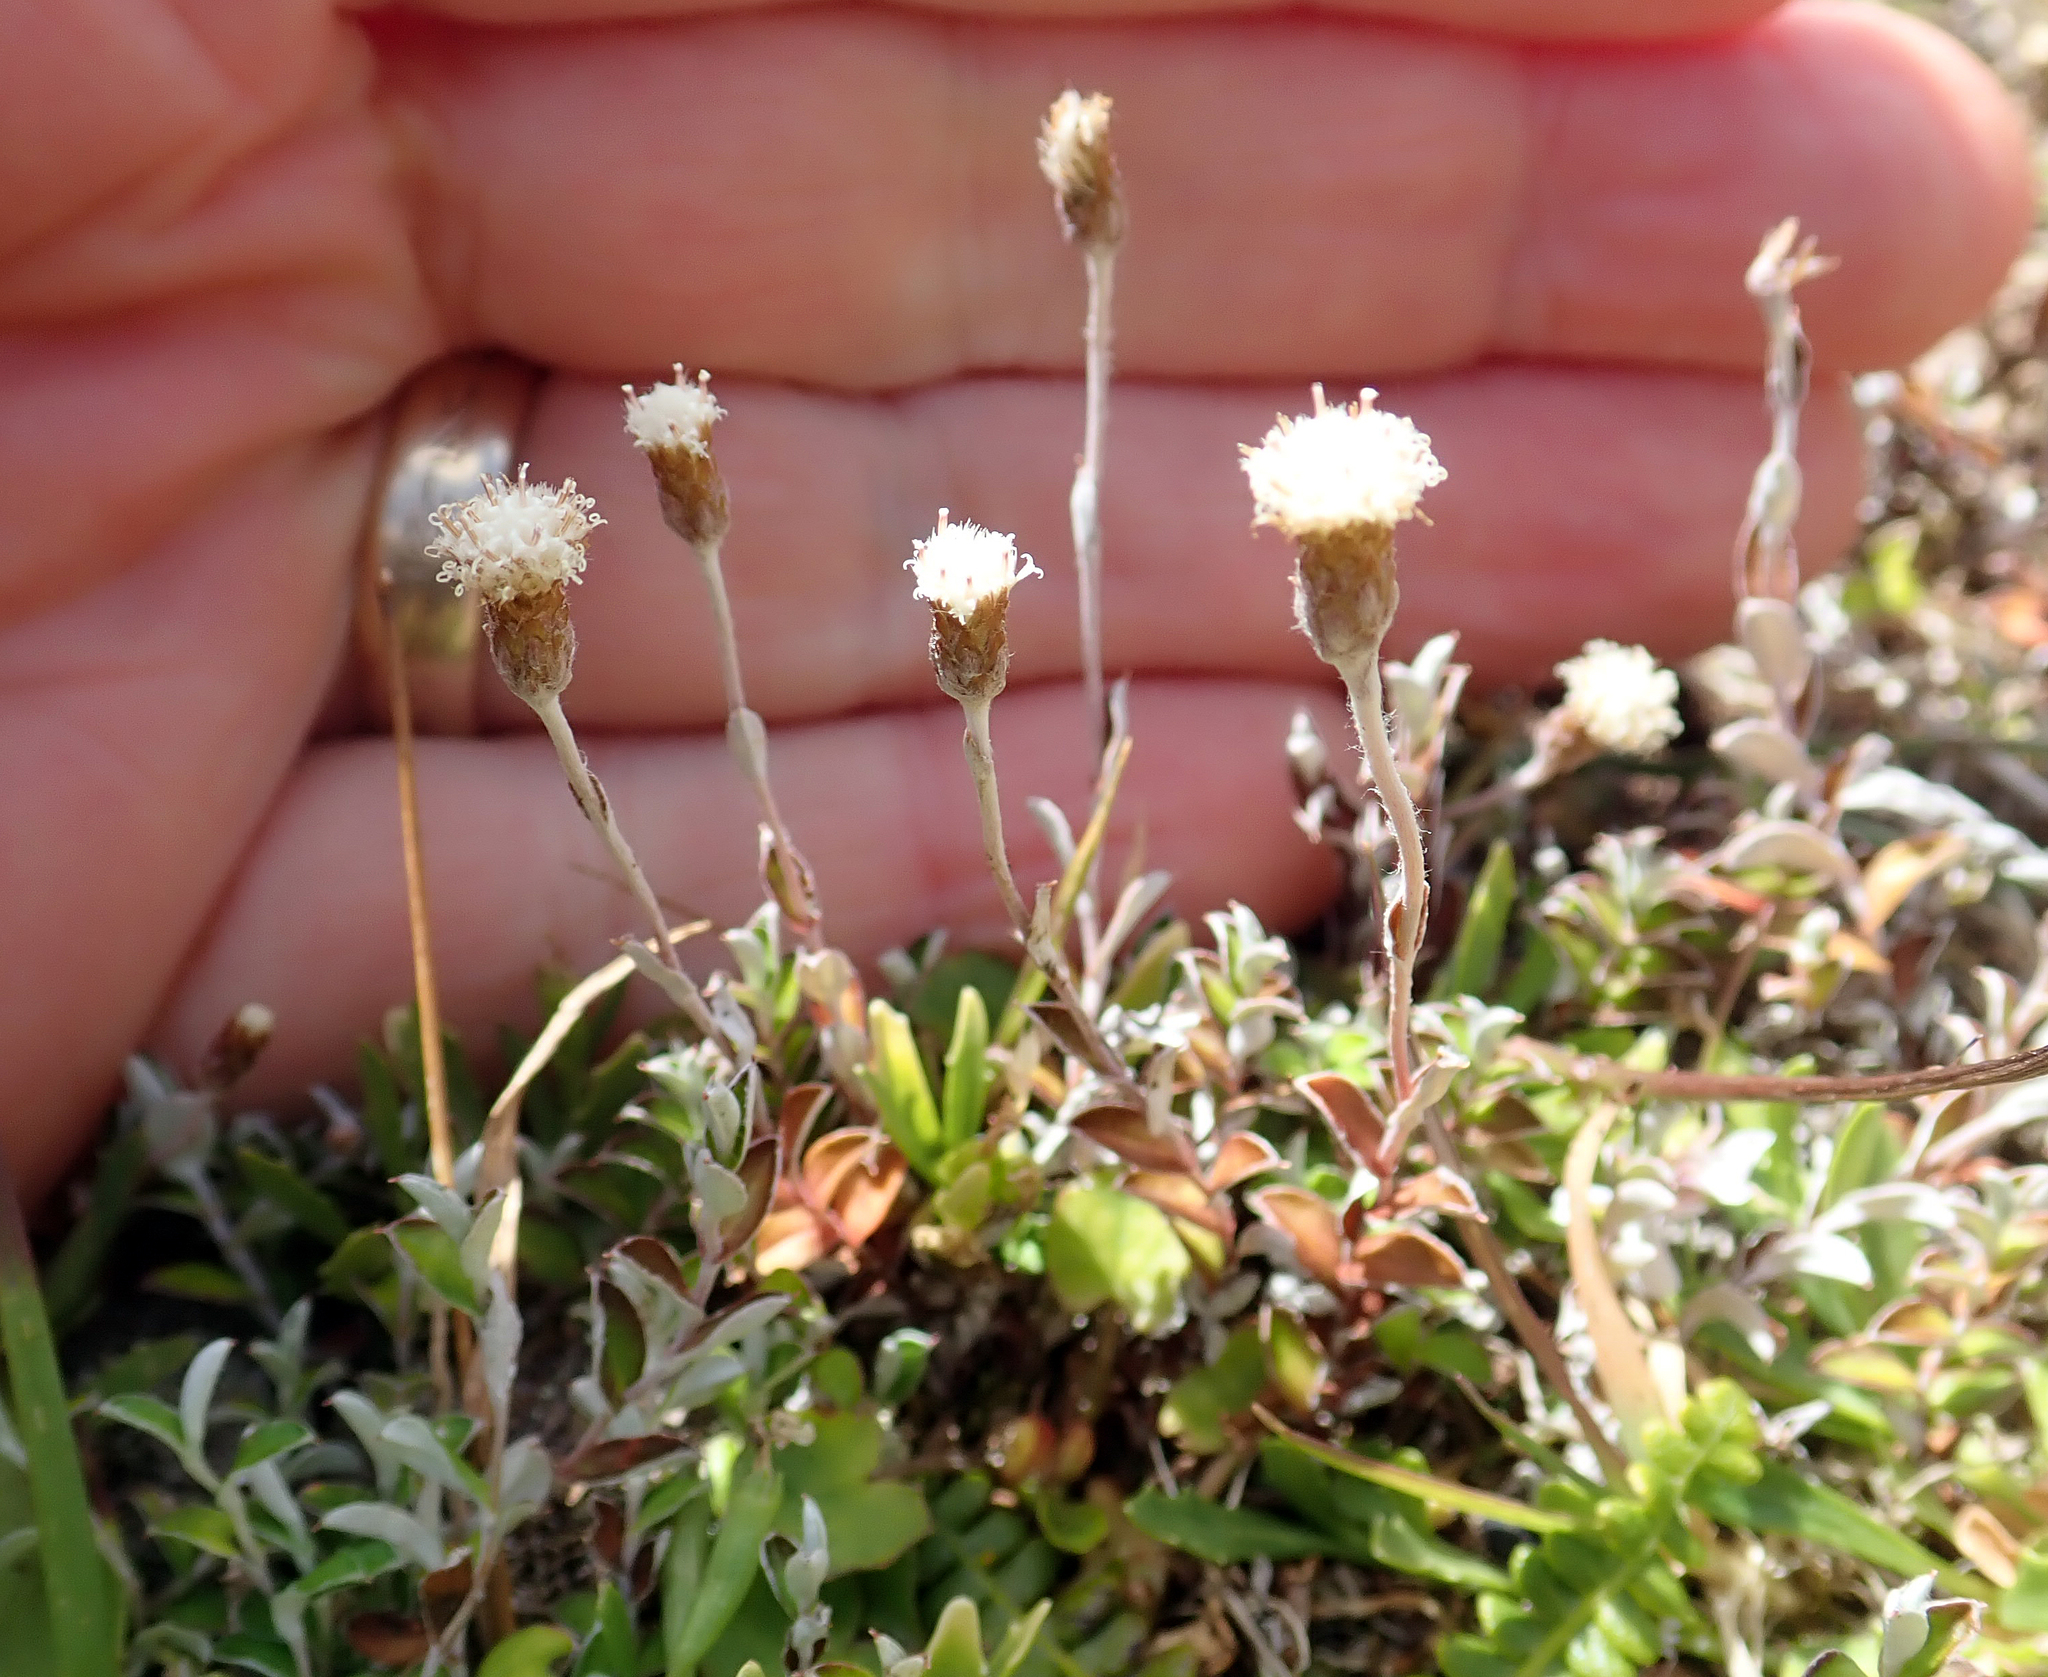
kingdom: Plantae
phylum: Tracheophyta
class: Magnoliopsida
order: Asterales
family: Asteraceae
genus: Helichrysum
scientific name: Helichrysum filicaule
